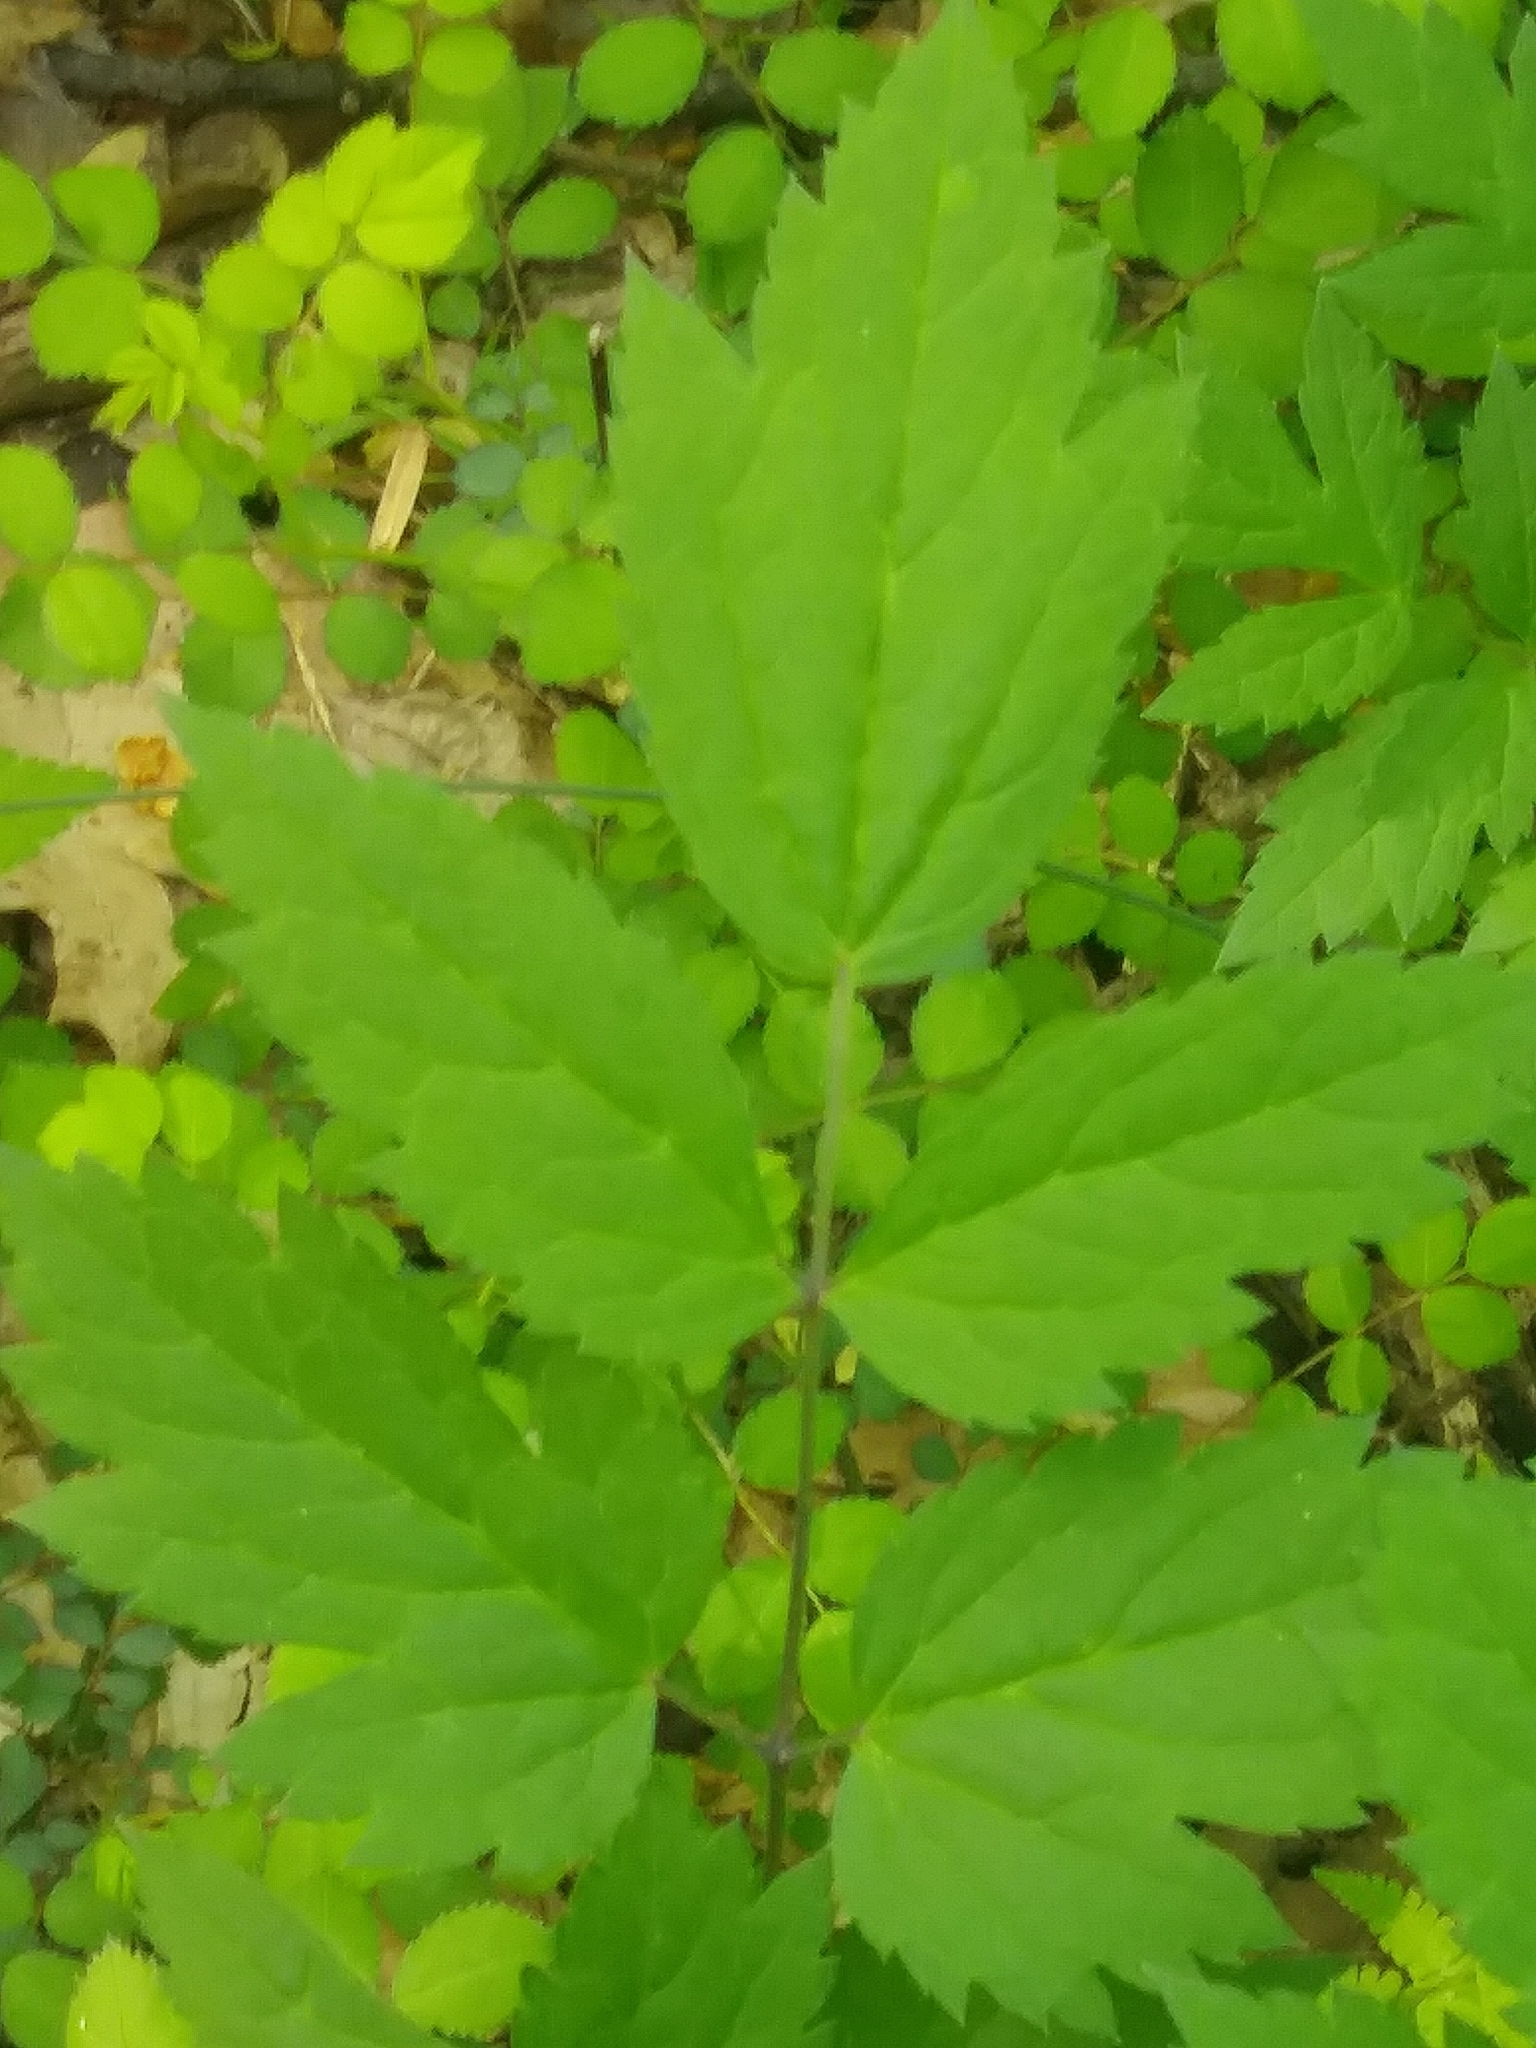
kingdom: Plantae
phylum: Tracheophyta
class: Magnoliopsida
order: Ranunculales
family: Ranunculaceae
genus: Actaea
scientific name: Actaea racemosa
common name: Black cohosh
